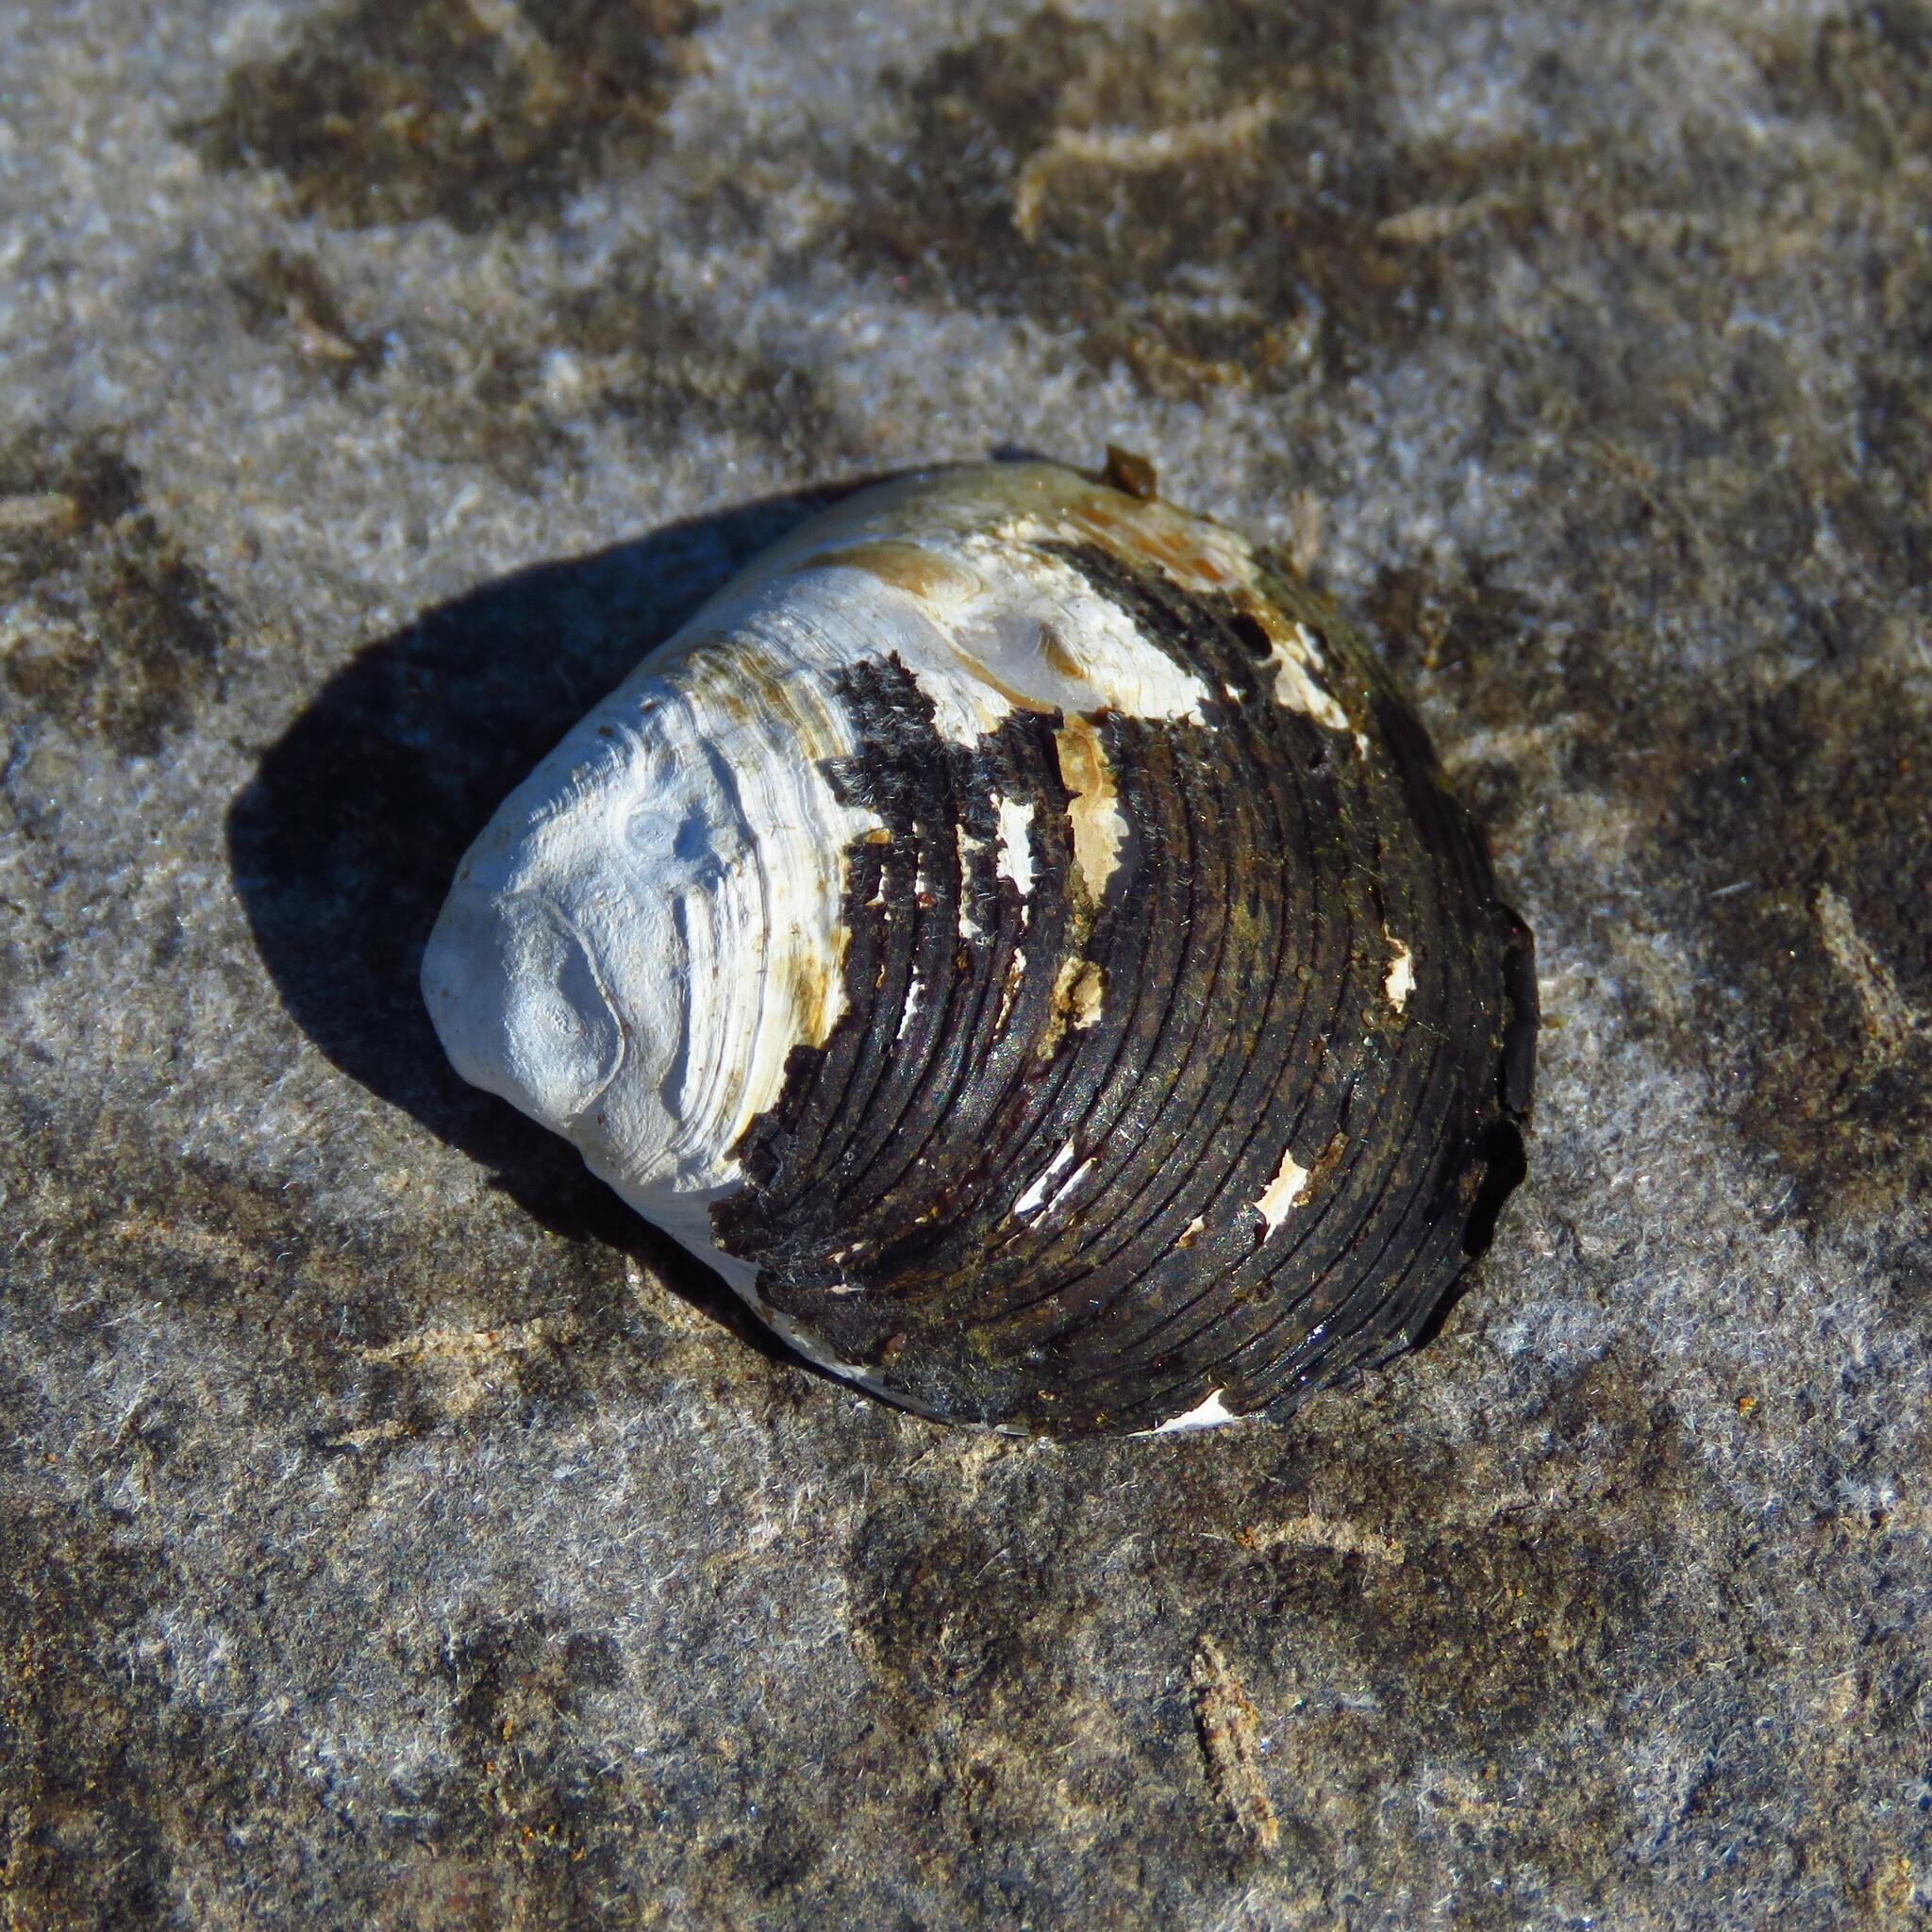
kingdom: Animalia
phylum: Mollusca
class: Bivalvia
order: Venerida
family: Cyrenidae
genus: Corbicula
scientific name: Corbicula fluminea
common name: Asian clam
